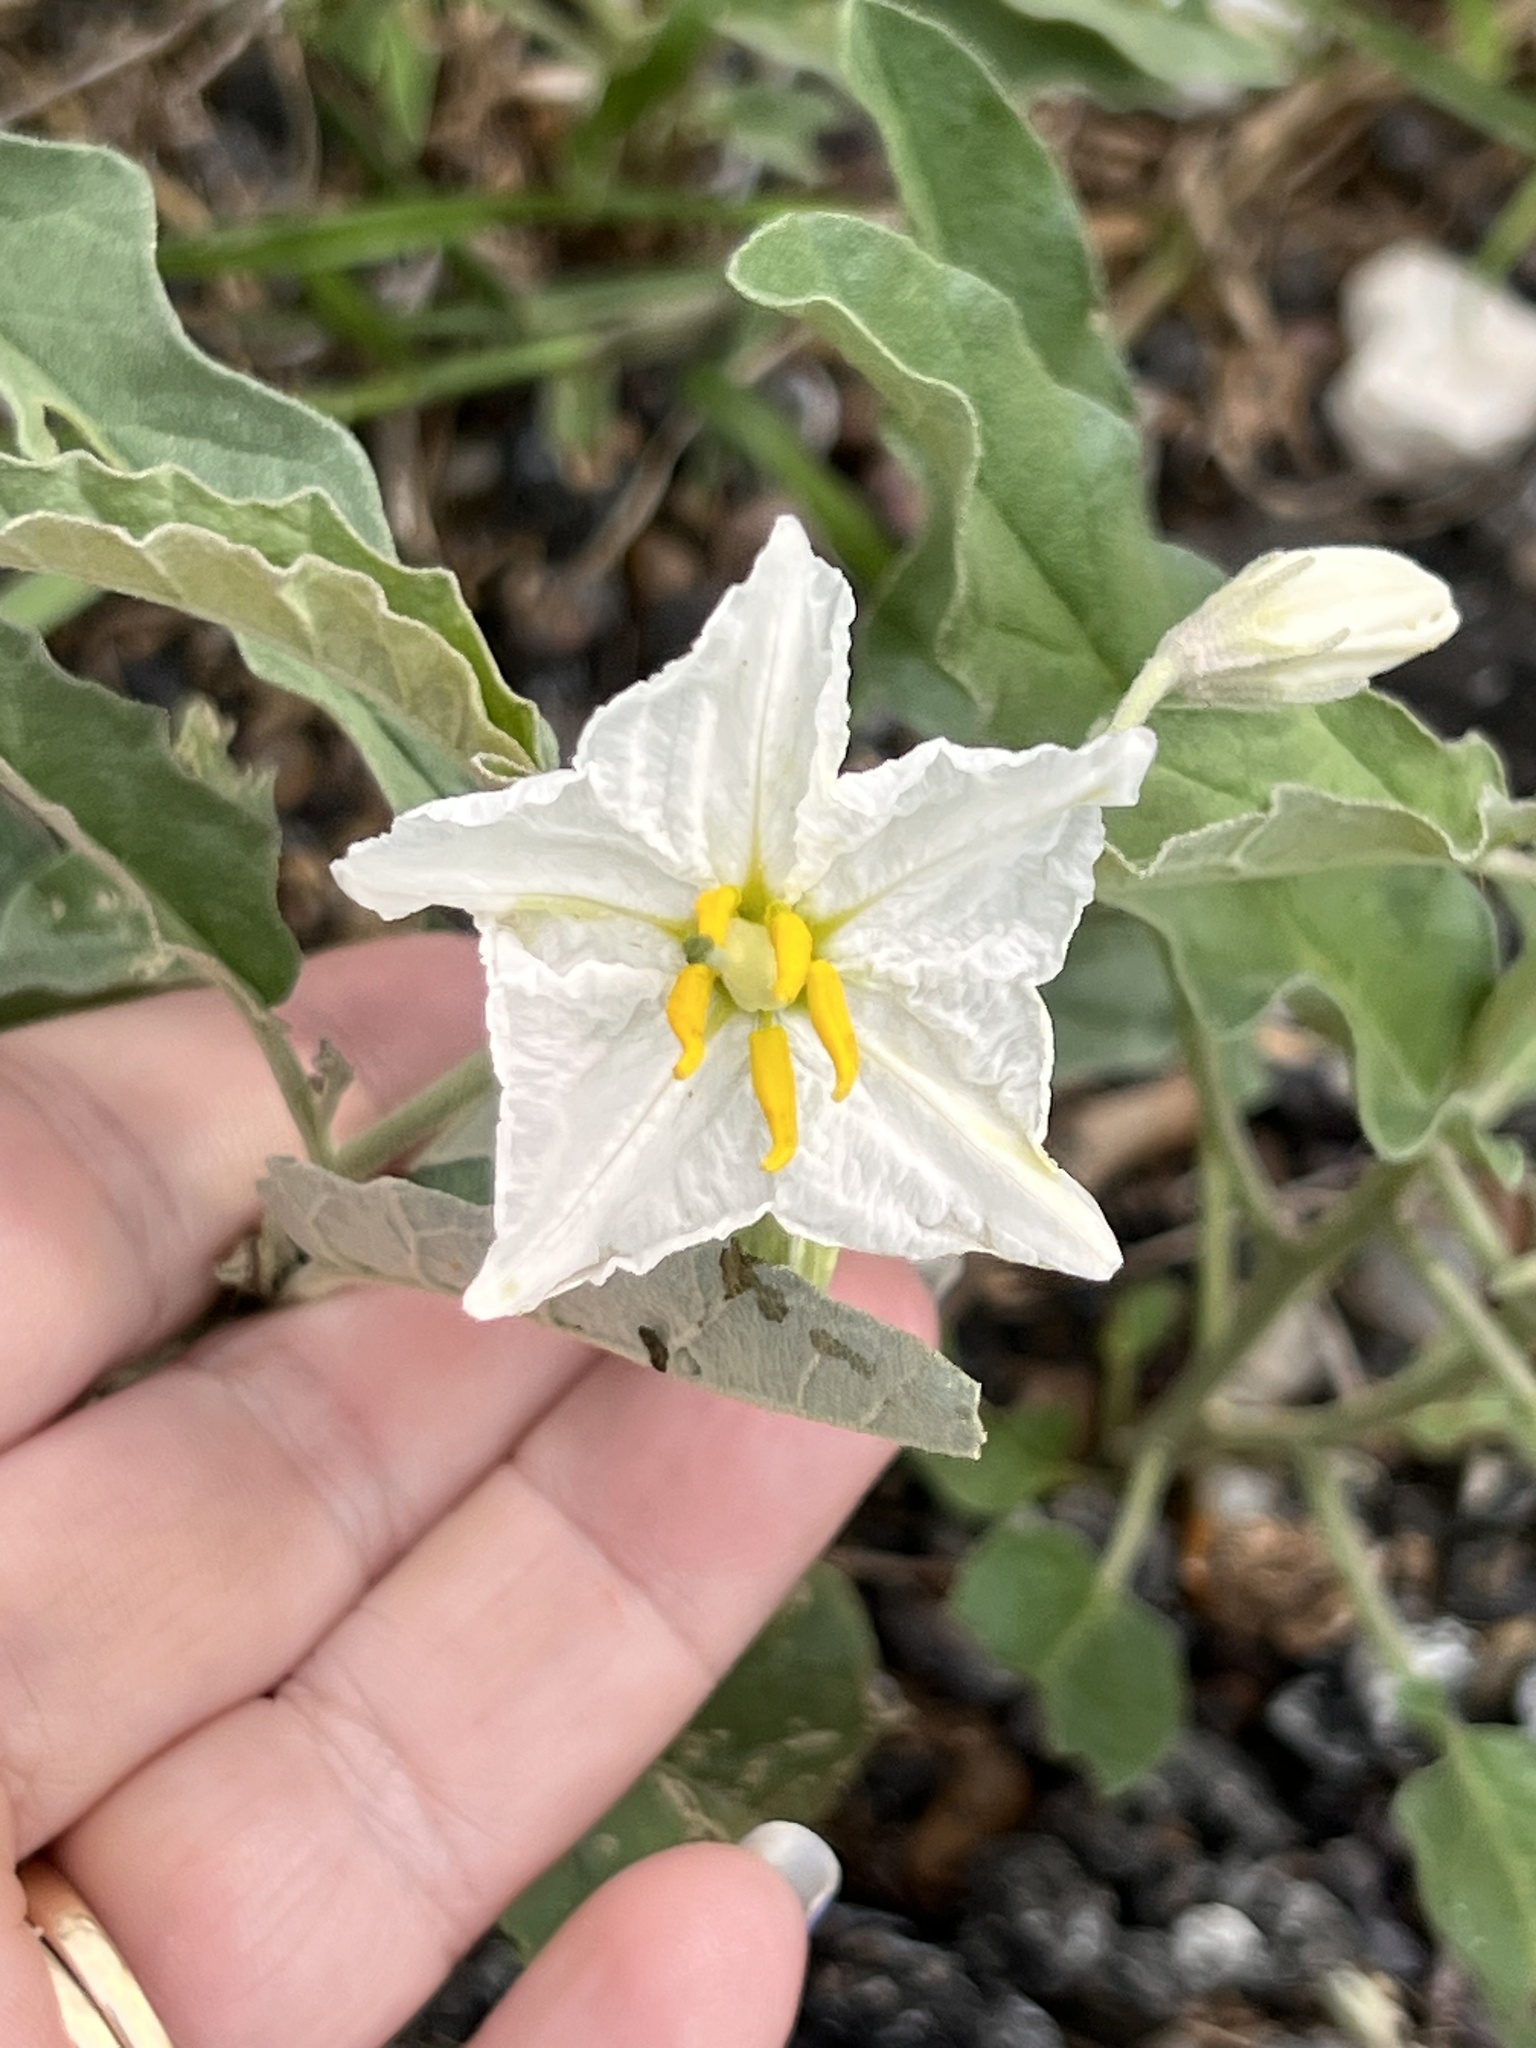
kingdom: Plantae
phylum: Tracheophyta
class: Magnoliopsida
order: Solanales
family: Solanaceae
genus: Solanum
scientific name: Solanum elaeagnifolium
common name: Silverleaf nightshade
